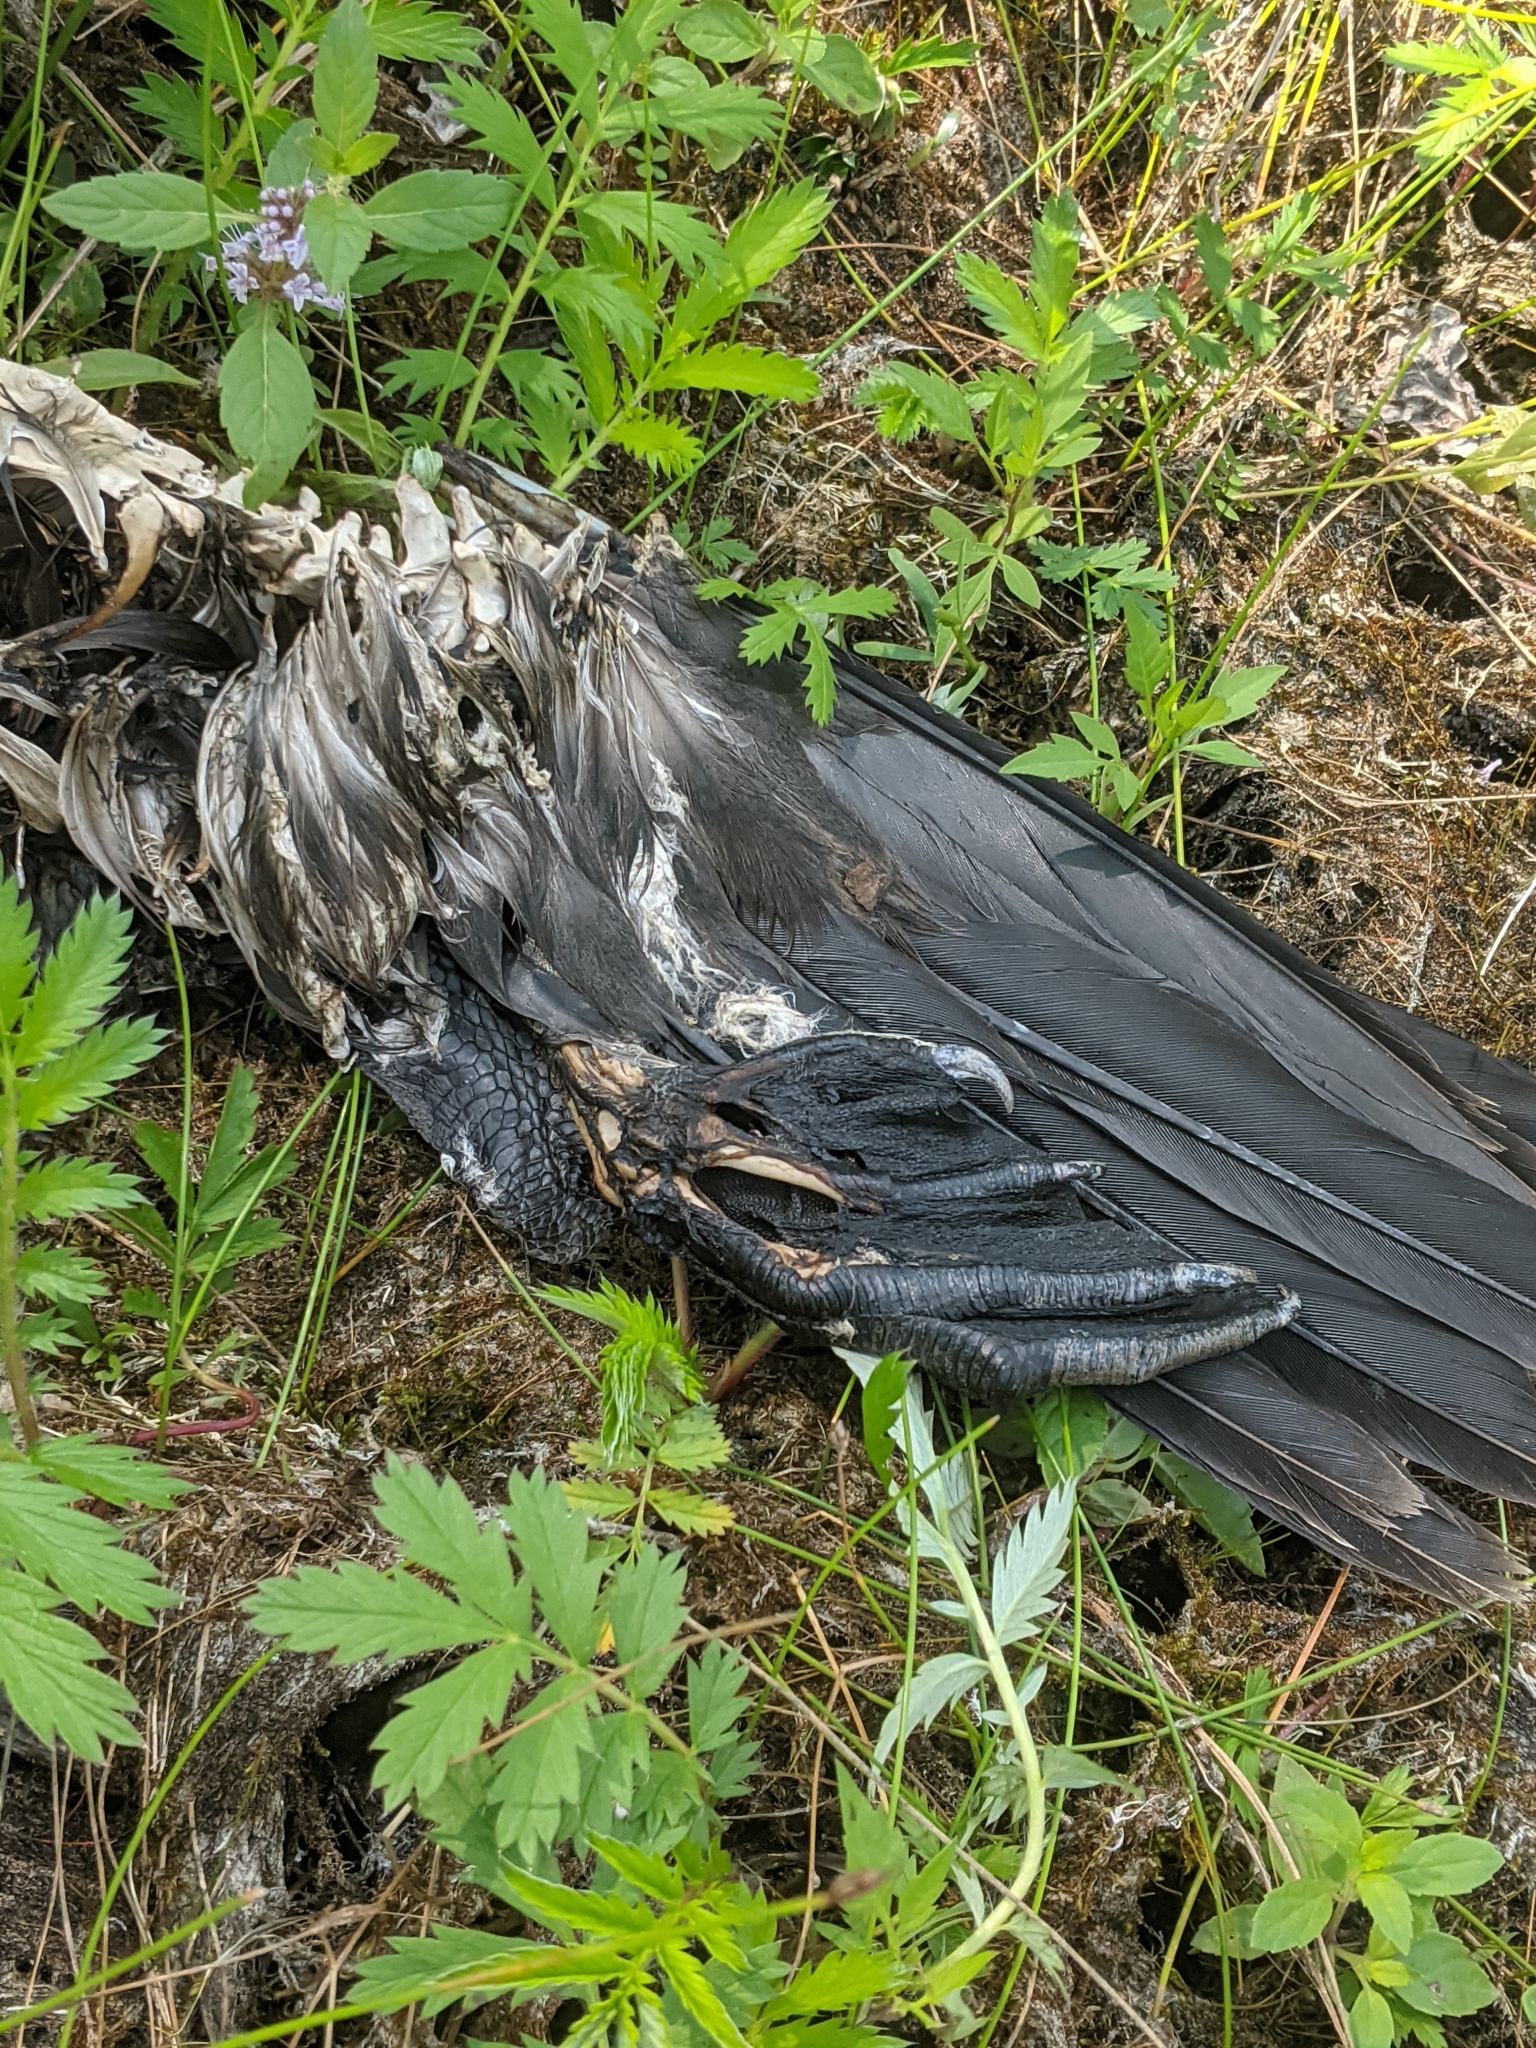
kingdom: Animalia
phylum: Chordata
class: Aves
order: Anseriformes
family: Anatidae
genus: Branta
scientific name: Branta canadensis
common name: Canada goose
